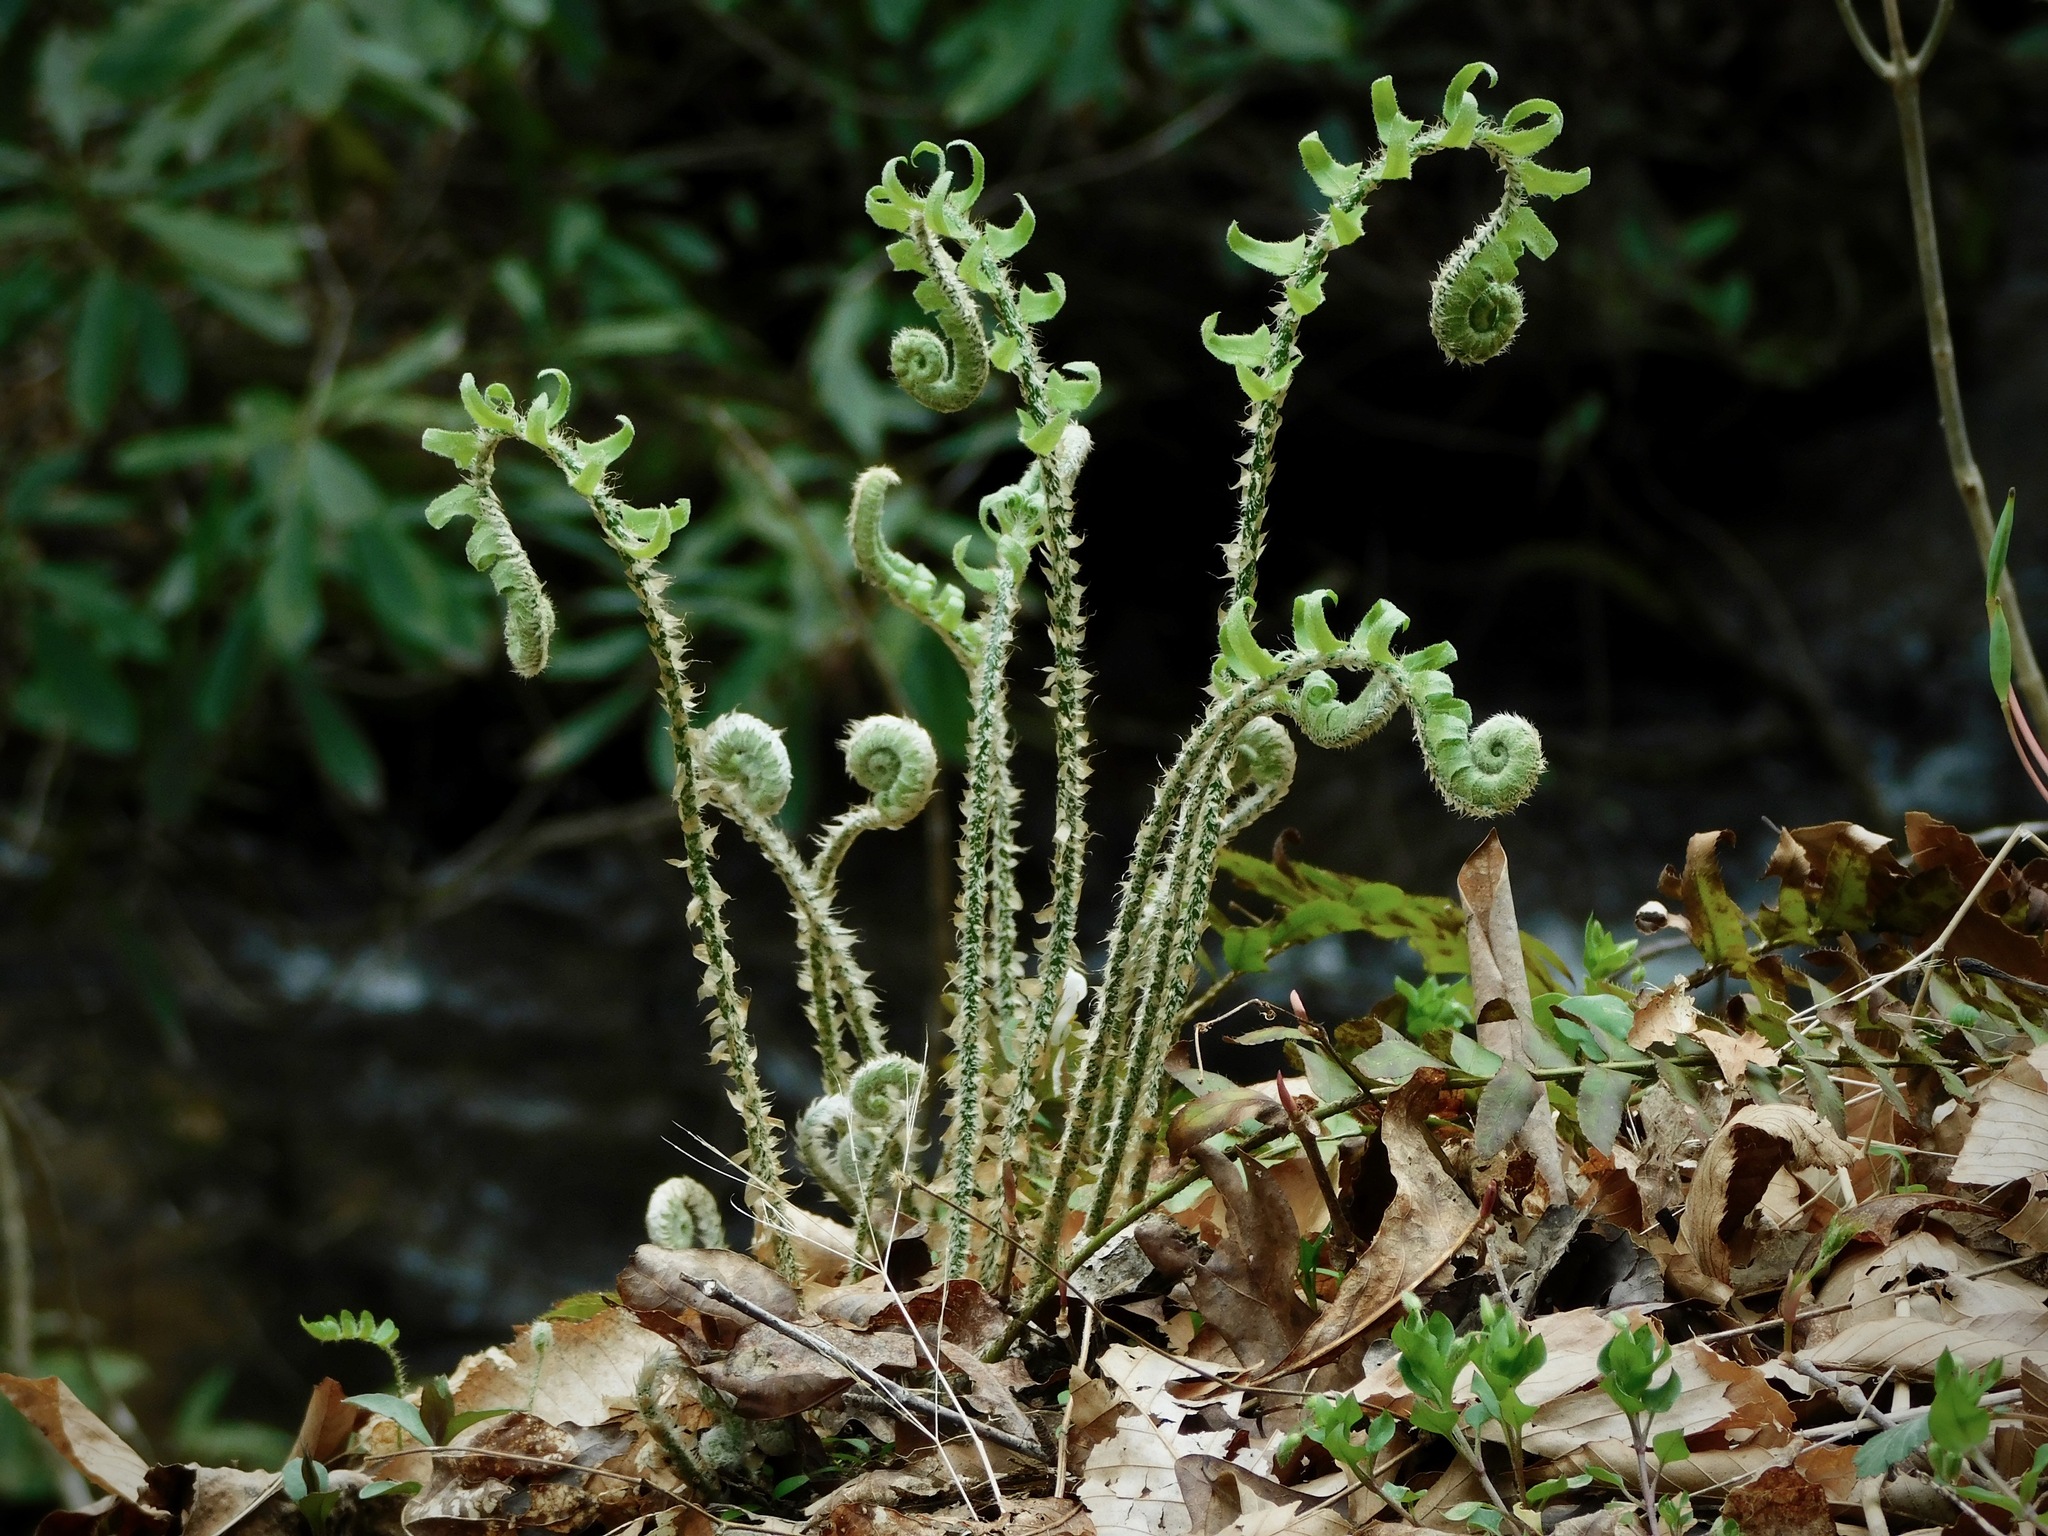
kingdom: Plantae
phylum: Tracheophyta
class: Polypodiopsida
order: Polypodiales
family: Dryopteridaceae
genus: Polystichum
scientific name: Polystichum acrostichoides
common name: Christmas fern
